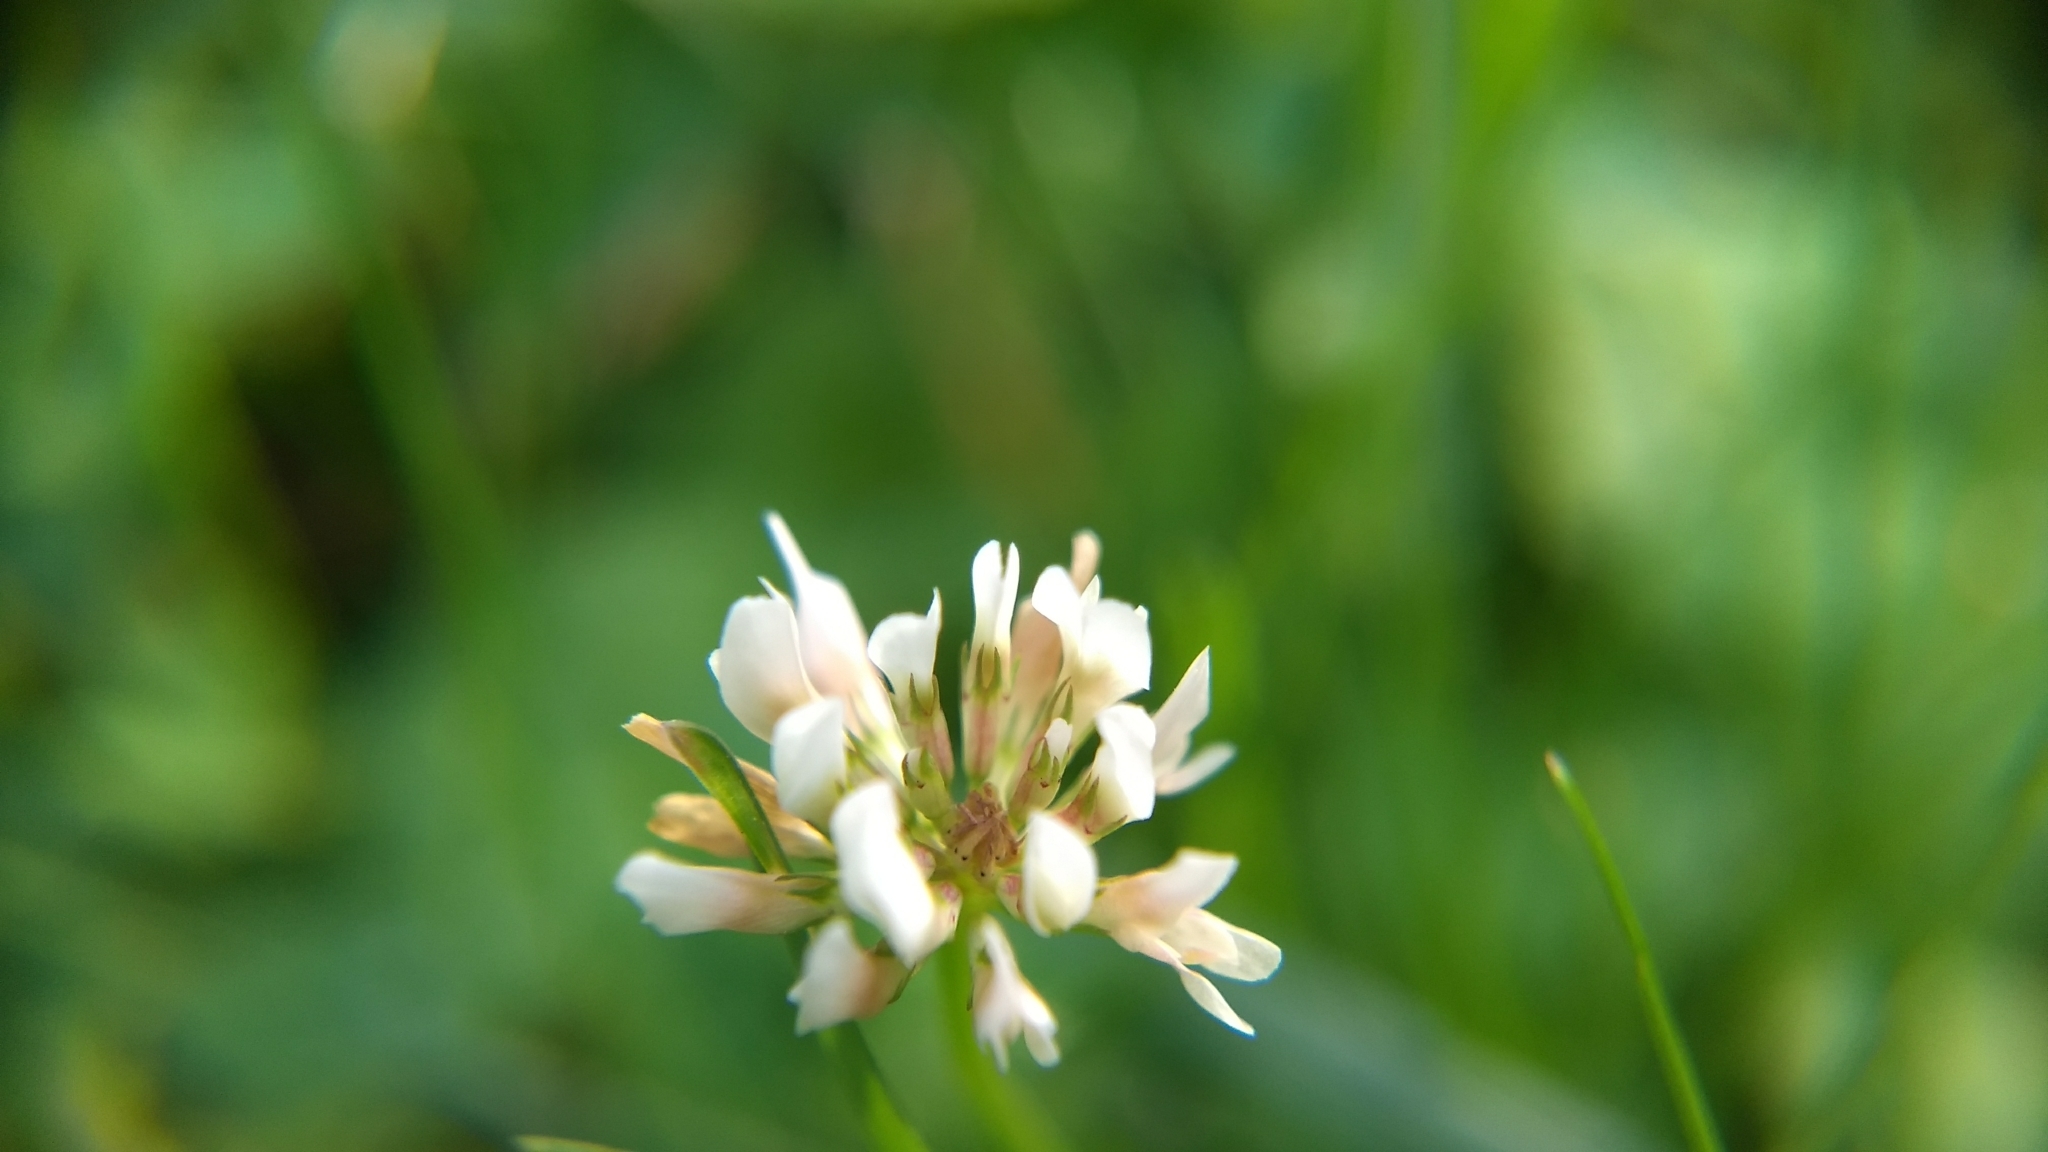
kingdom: Plantae
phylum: Tracheophyta
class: Magnoliopsida
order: Fabales
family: Fabaceae
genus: Trifolium
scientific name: Trifolium repens
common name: White clover
